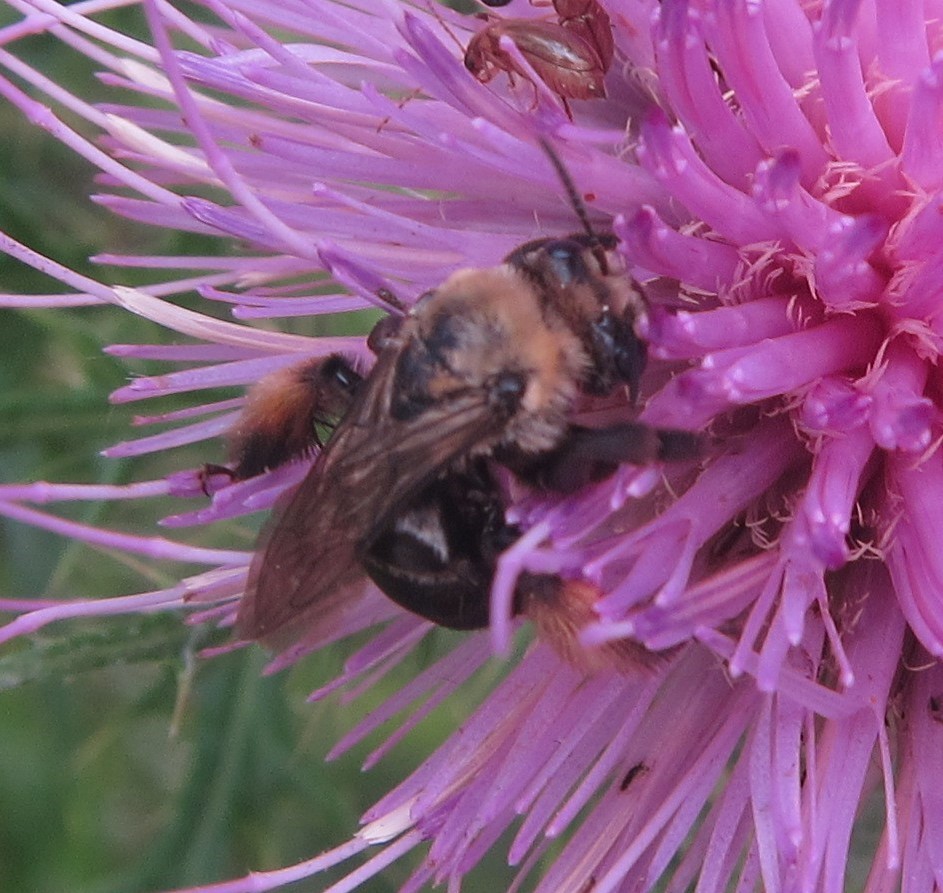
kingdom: Animalia
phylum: Arthropoda
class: Insecta
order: Hymenoptera
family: Apidae
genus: Melissodes
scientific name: Melissodes desponsus
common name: Thistle long-horned bee
